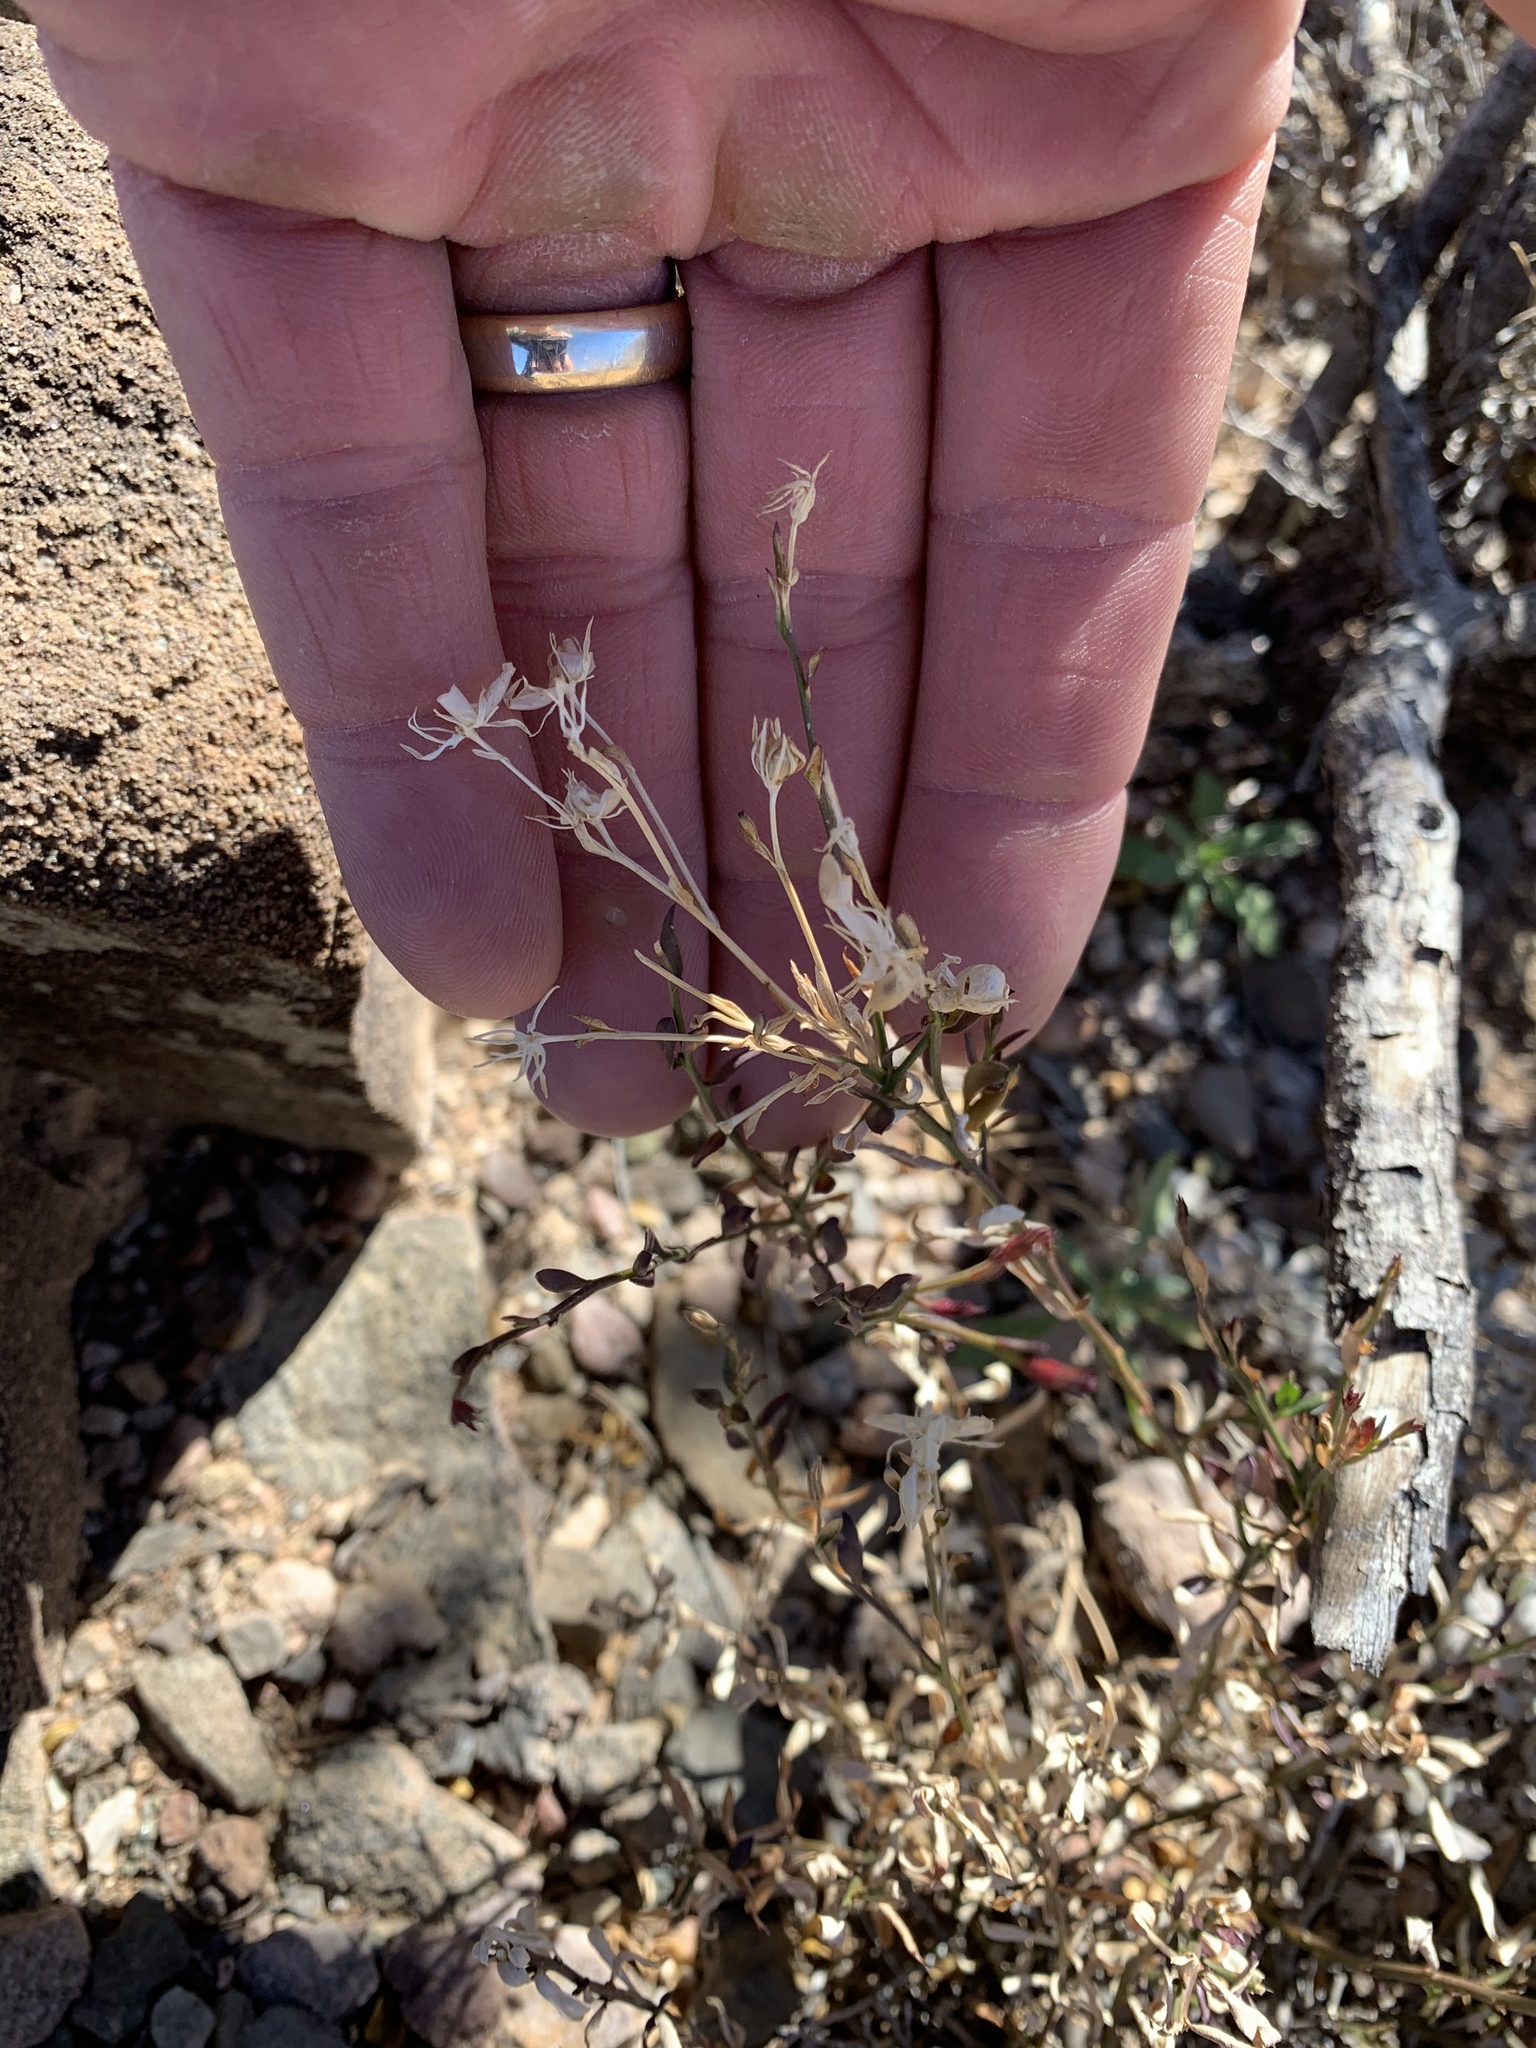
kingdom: Plantae
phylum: Tracheophyta
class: Magnoliopsida
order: Lamiales
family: Oleaceae
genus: Menodora
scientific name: Menodora scabra
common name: Rough menodora
